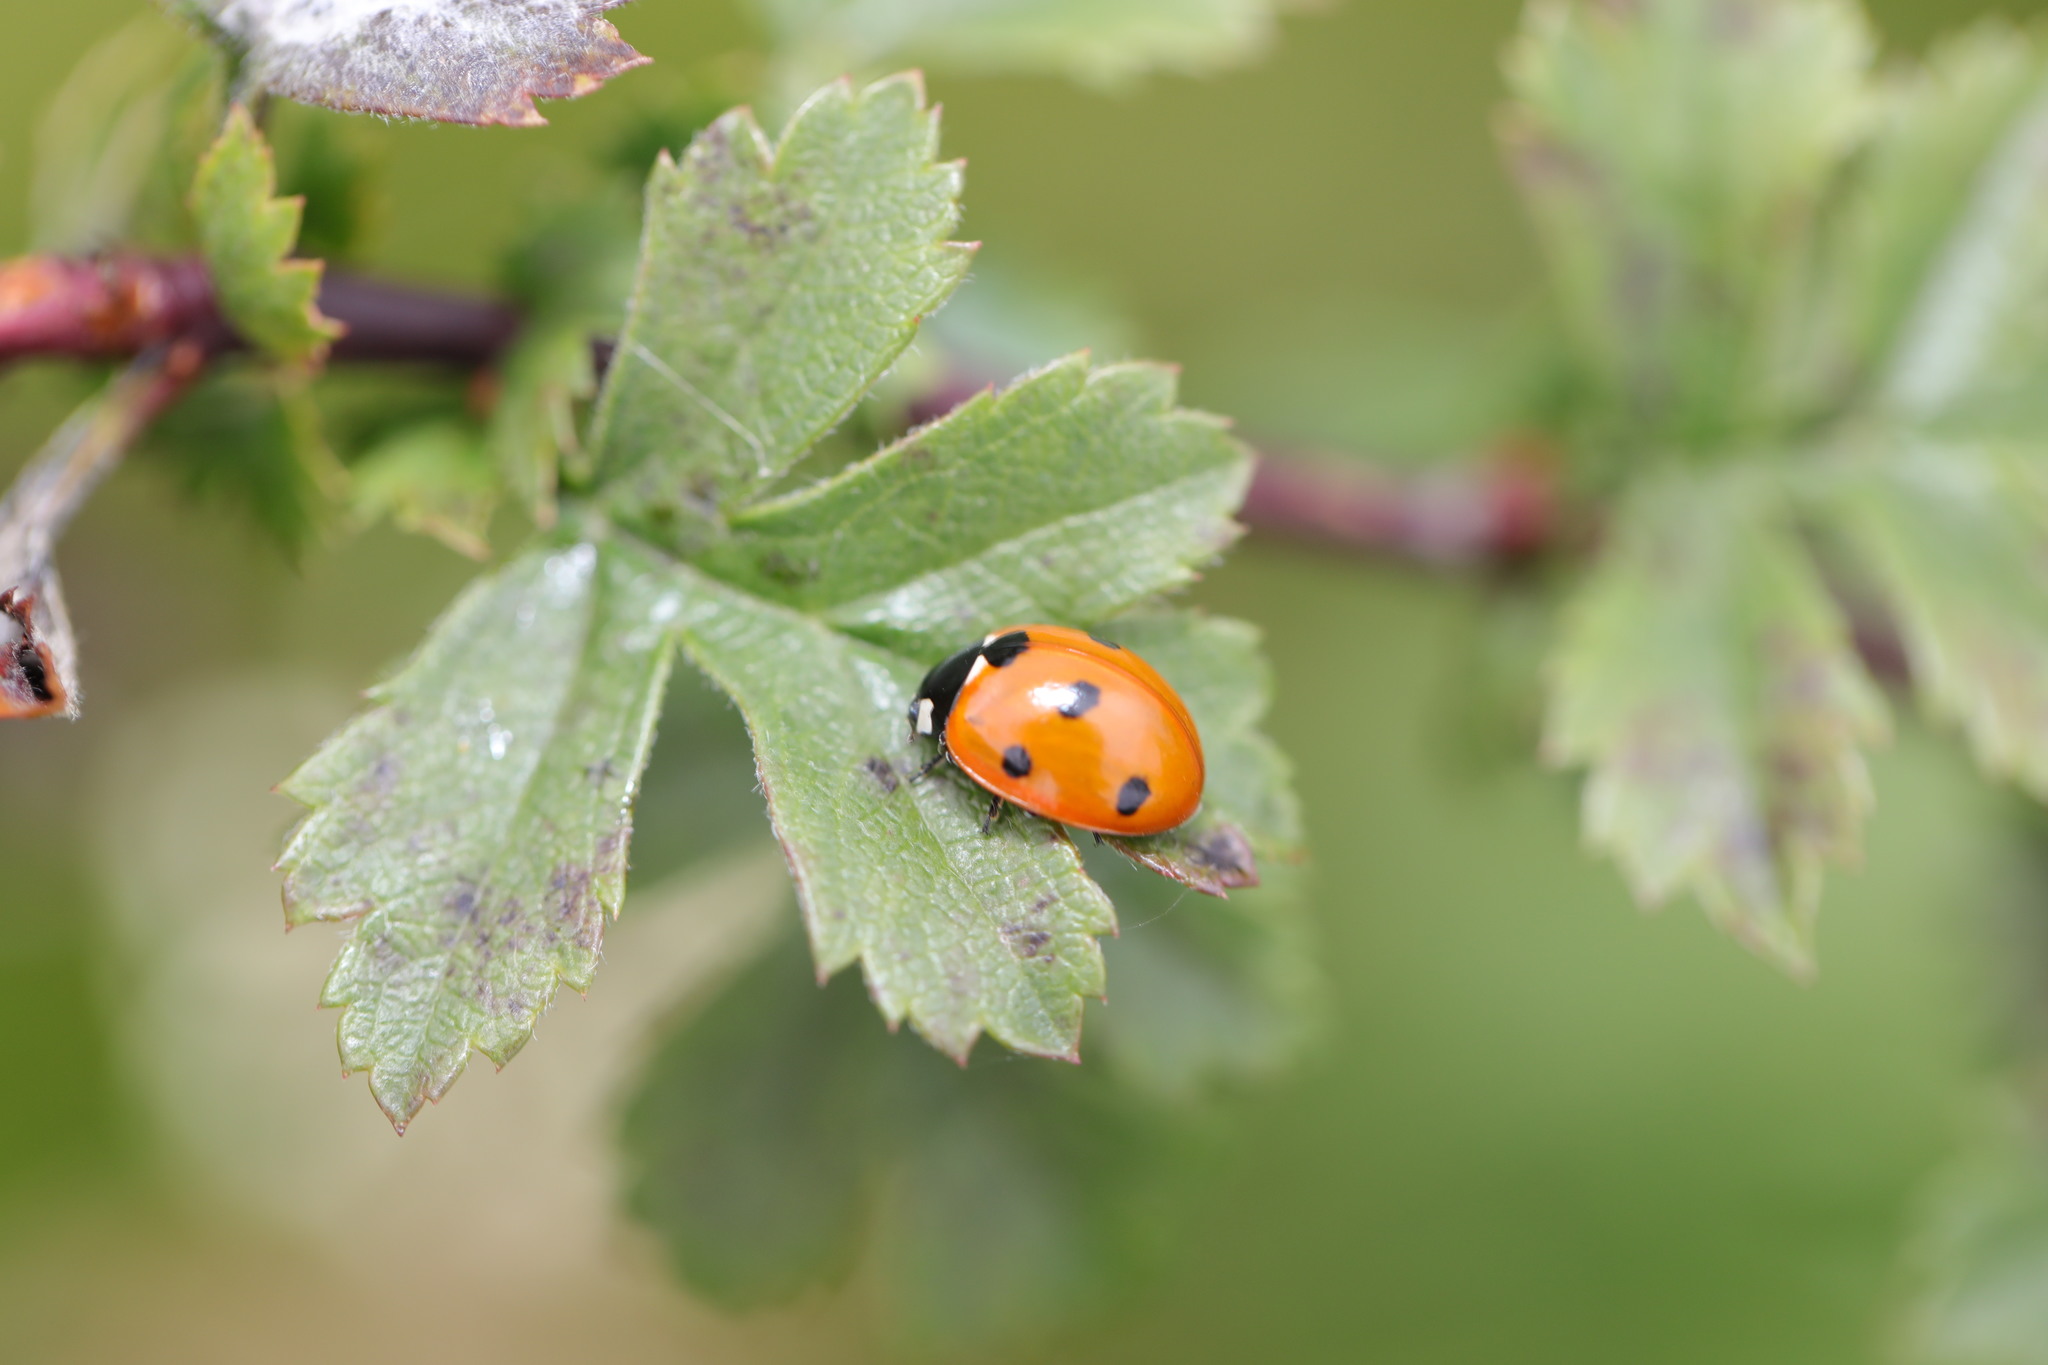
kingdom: Animalia
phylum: Arthropoda
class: Insecta
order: Coleoptera
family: Coccinellidae
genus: Coccinella
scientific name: Coccinella septempunctata
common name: Sevenspotted lady beetle
